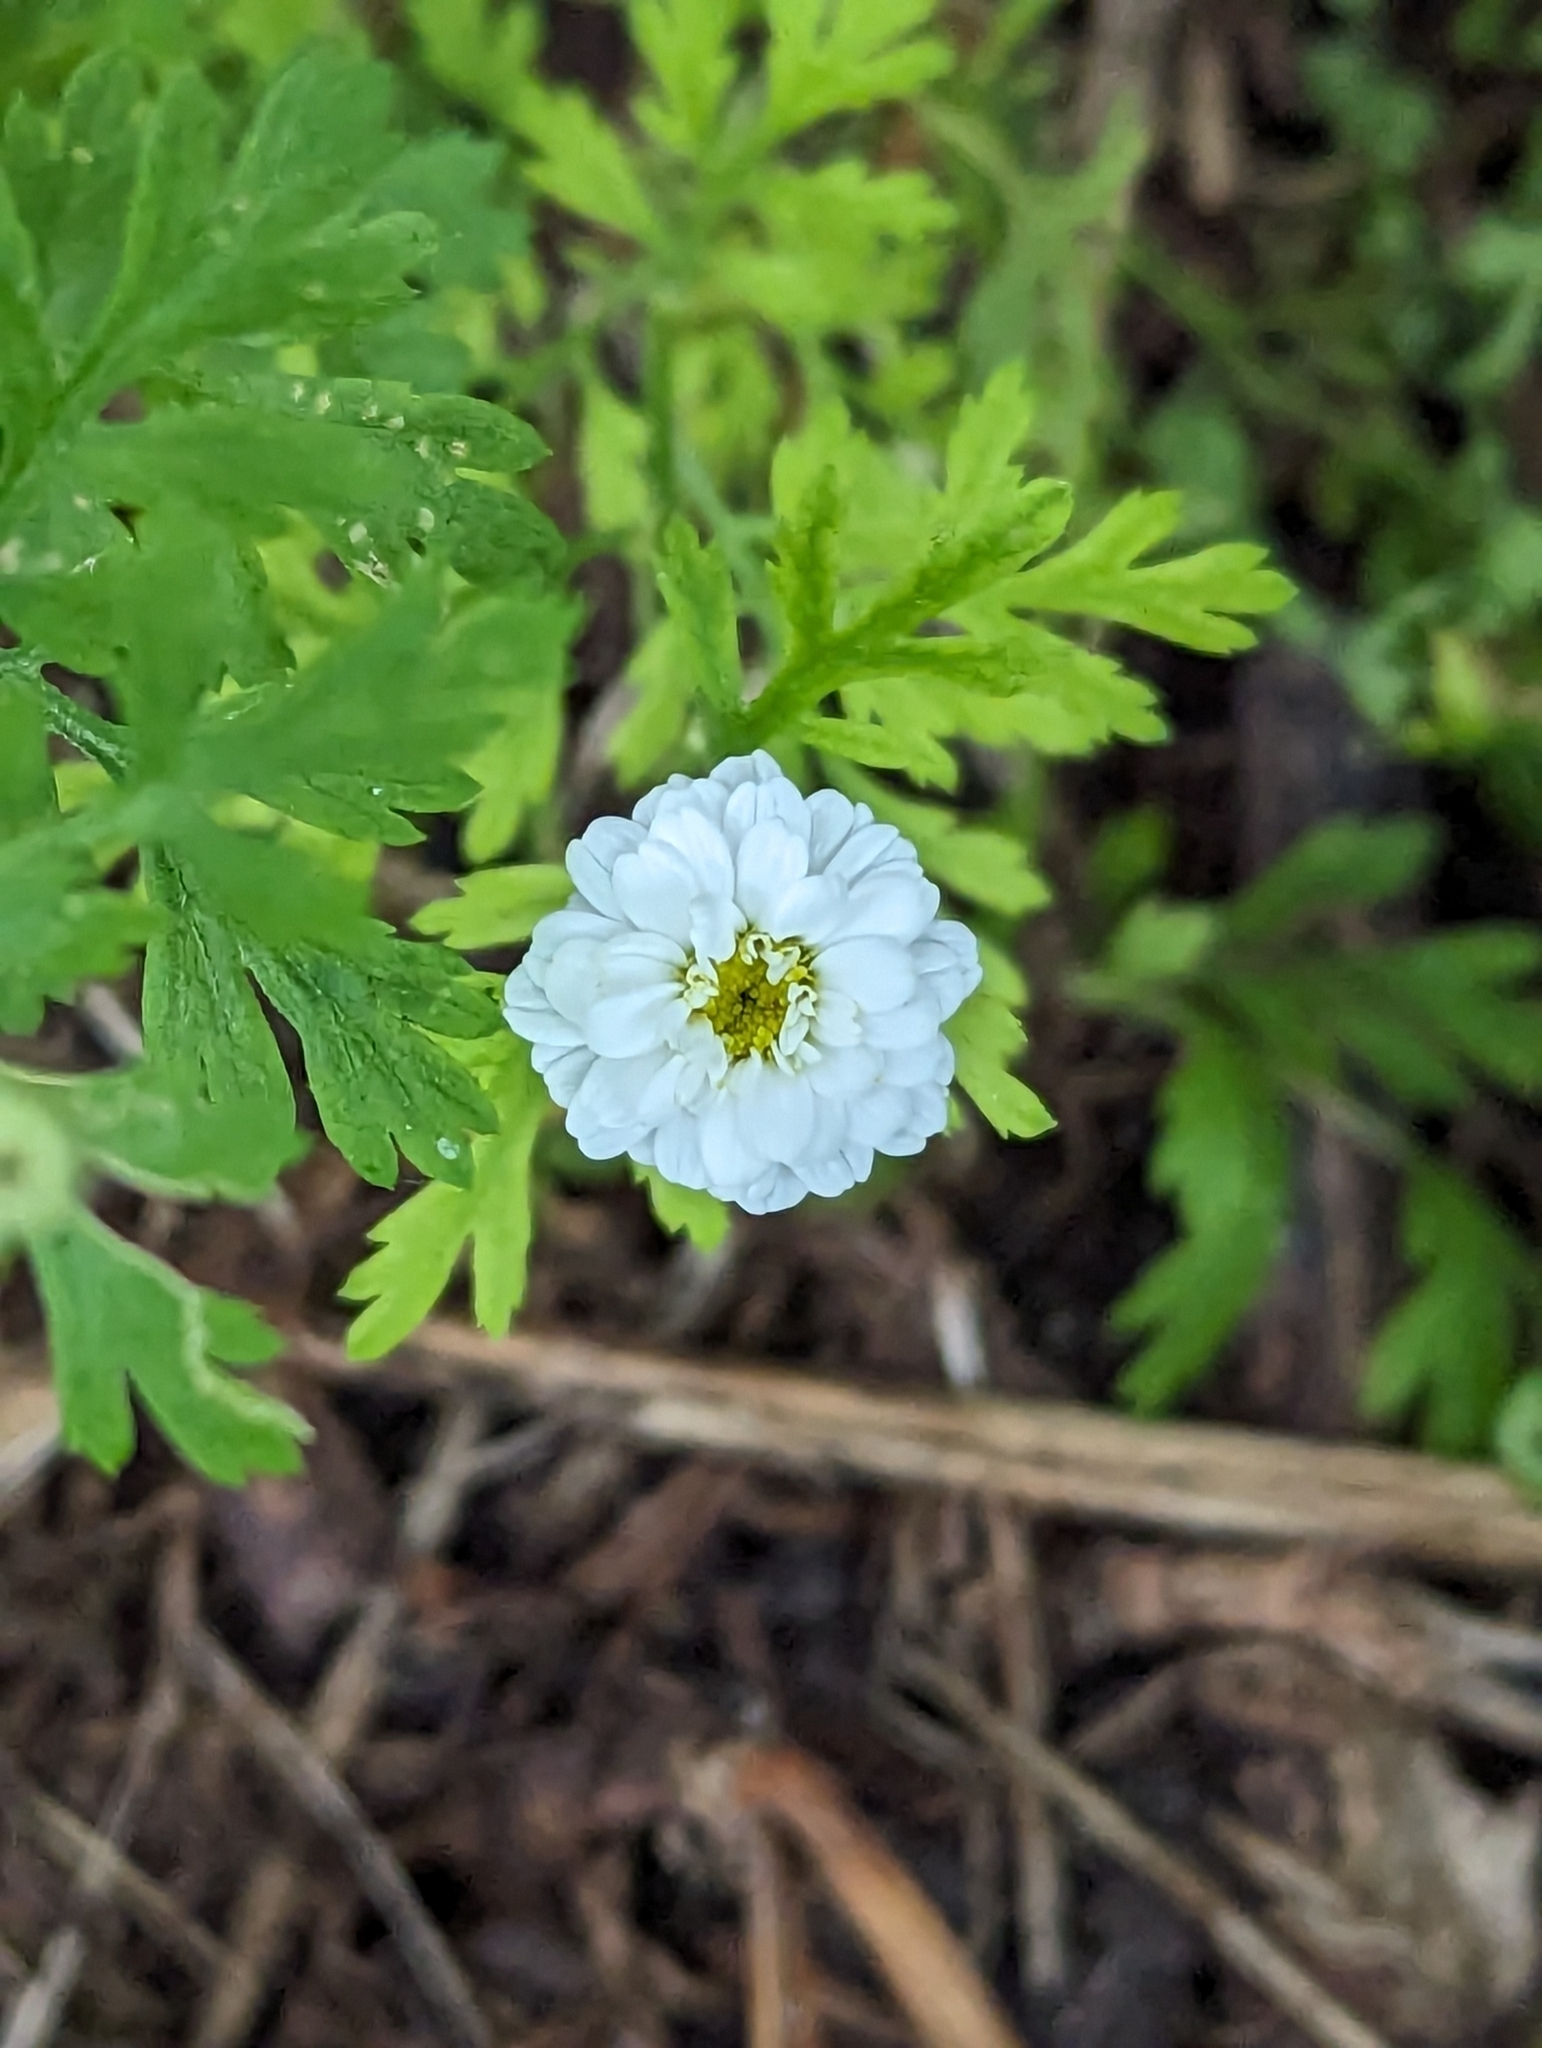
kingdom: Plantae
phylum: Tracheophyta
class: Magnoliopsida
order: Asterales
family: Asteraceae
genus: Tanacetum
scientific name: Tanacetum parthenium
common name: Feverfew
